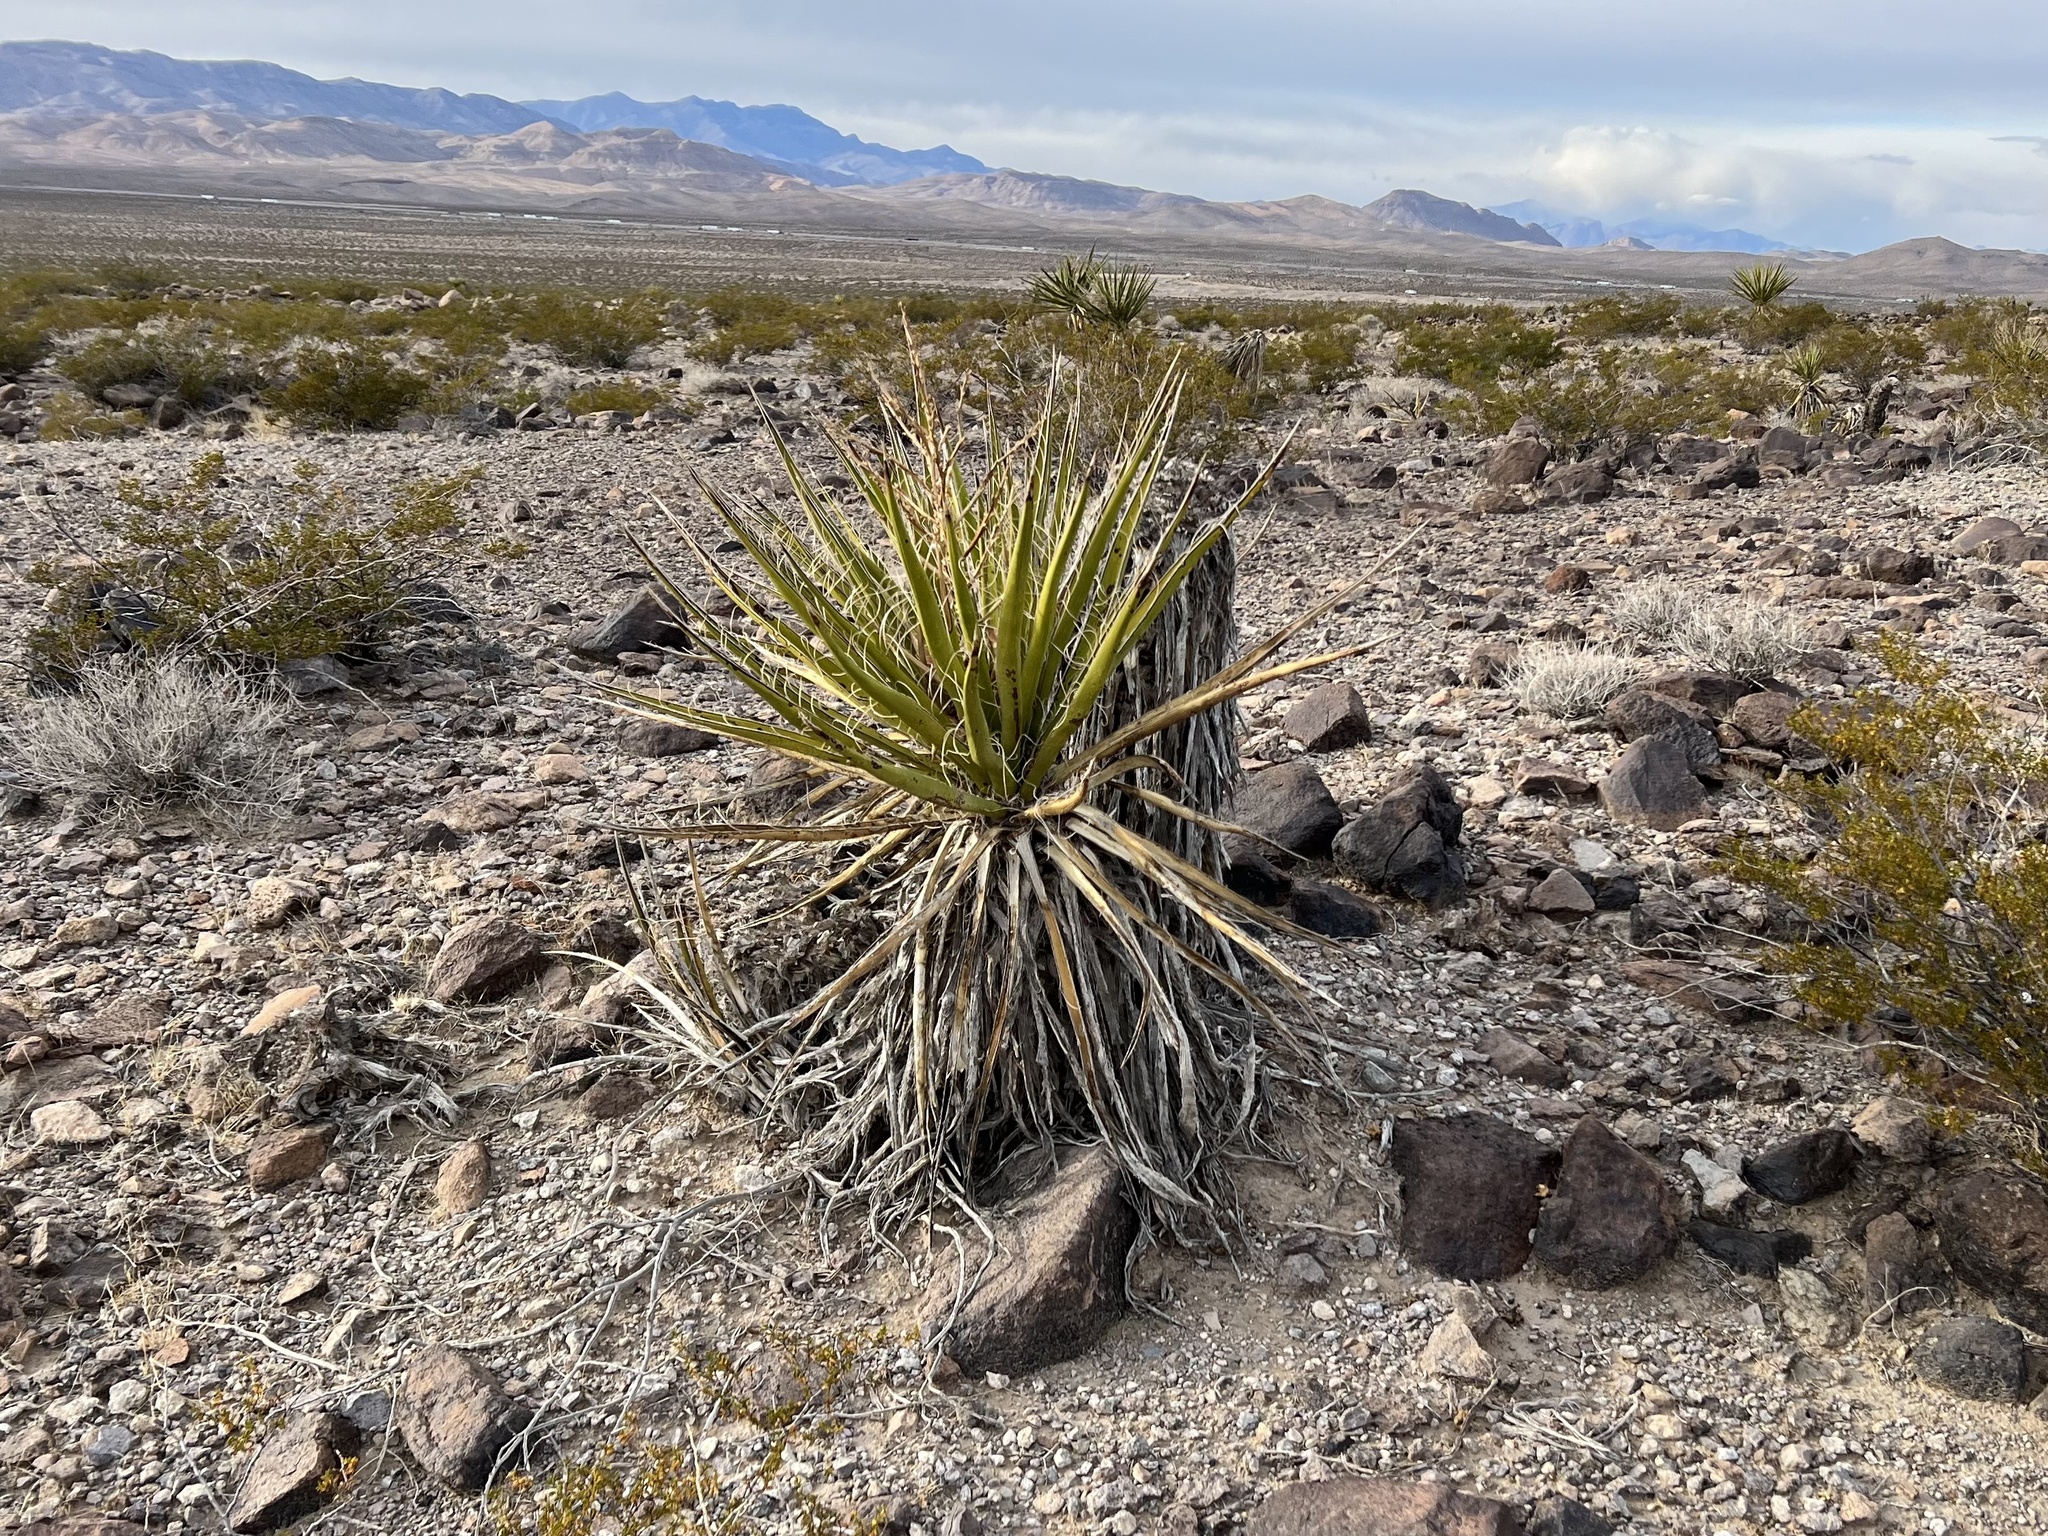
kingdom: Plantae
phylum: Tracheophyta
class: Liliopsida
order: Asparagales
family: Asparagaceae
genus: Yucca
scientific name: Yucca schidigera
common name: Mojave yucca
